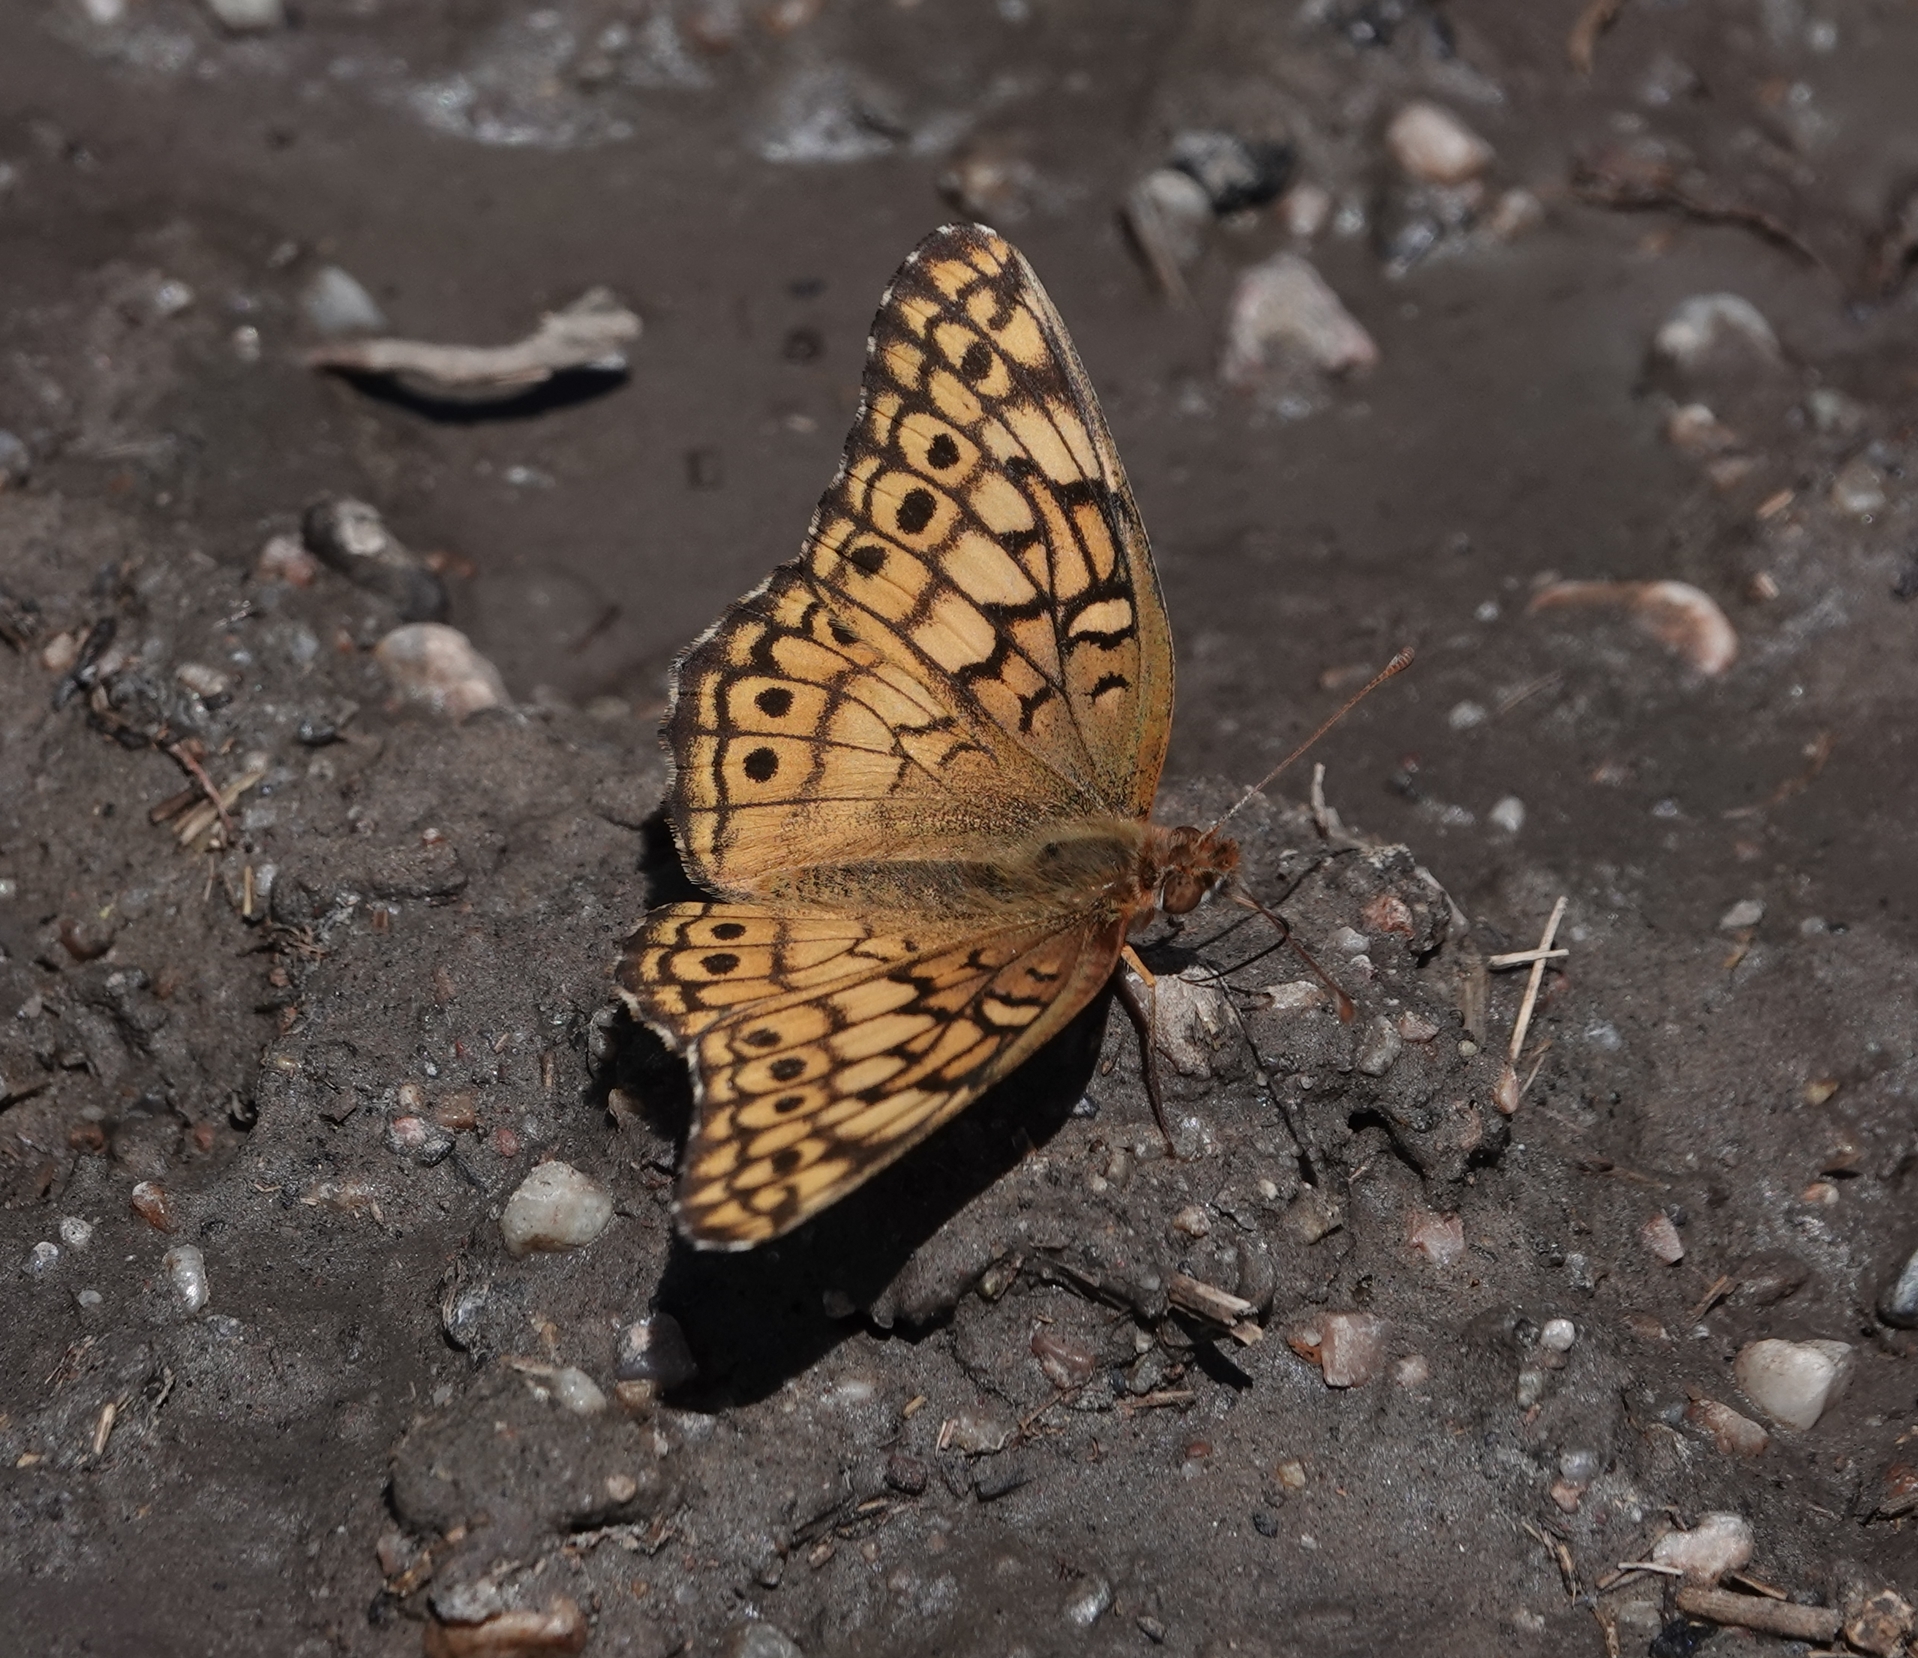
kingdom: Animalia
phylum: Arthropoda
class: Insecta
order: Lepidoptera
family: Nymphalidae
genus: Euptoieta
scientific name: Euptoieta claudia
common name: Variegated fritillary
